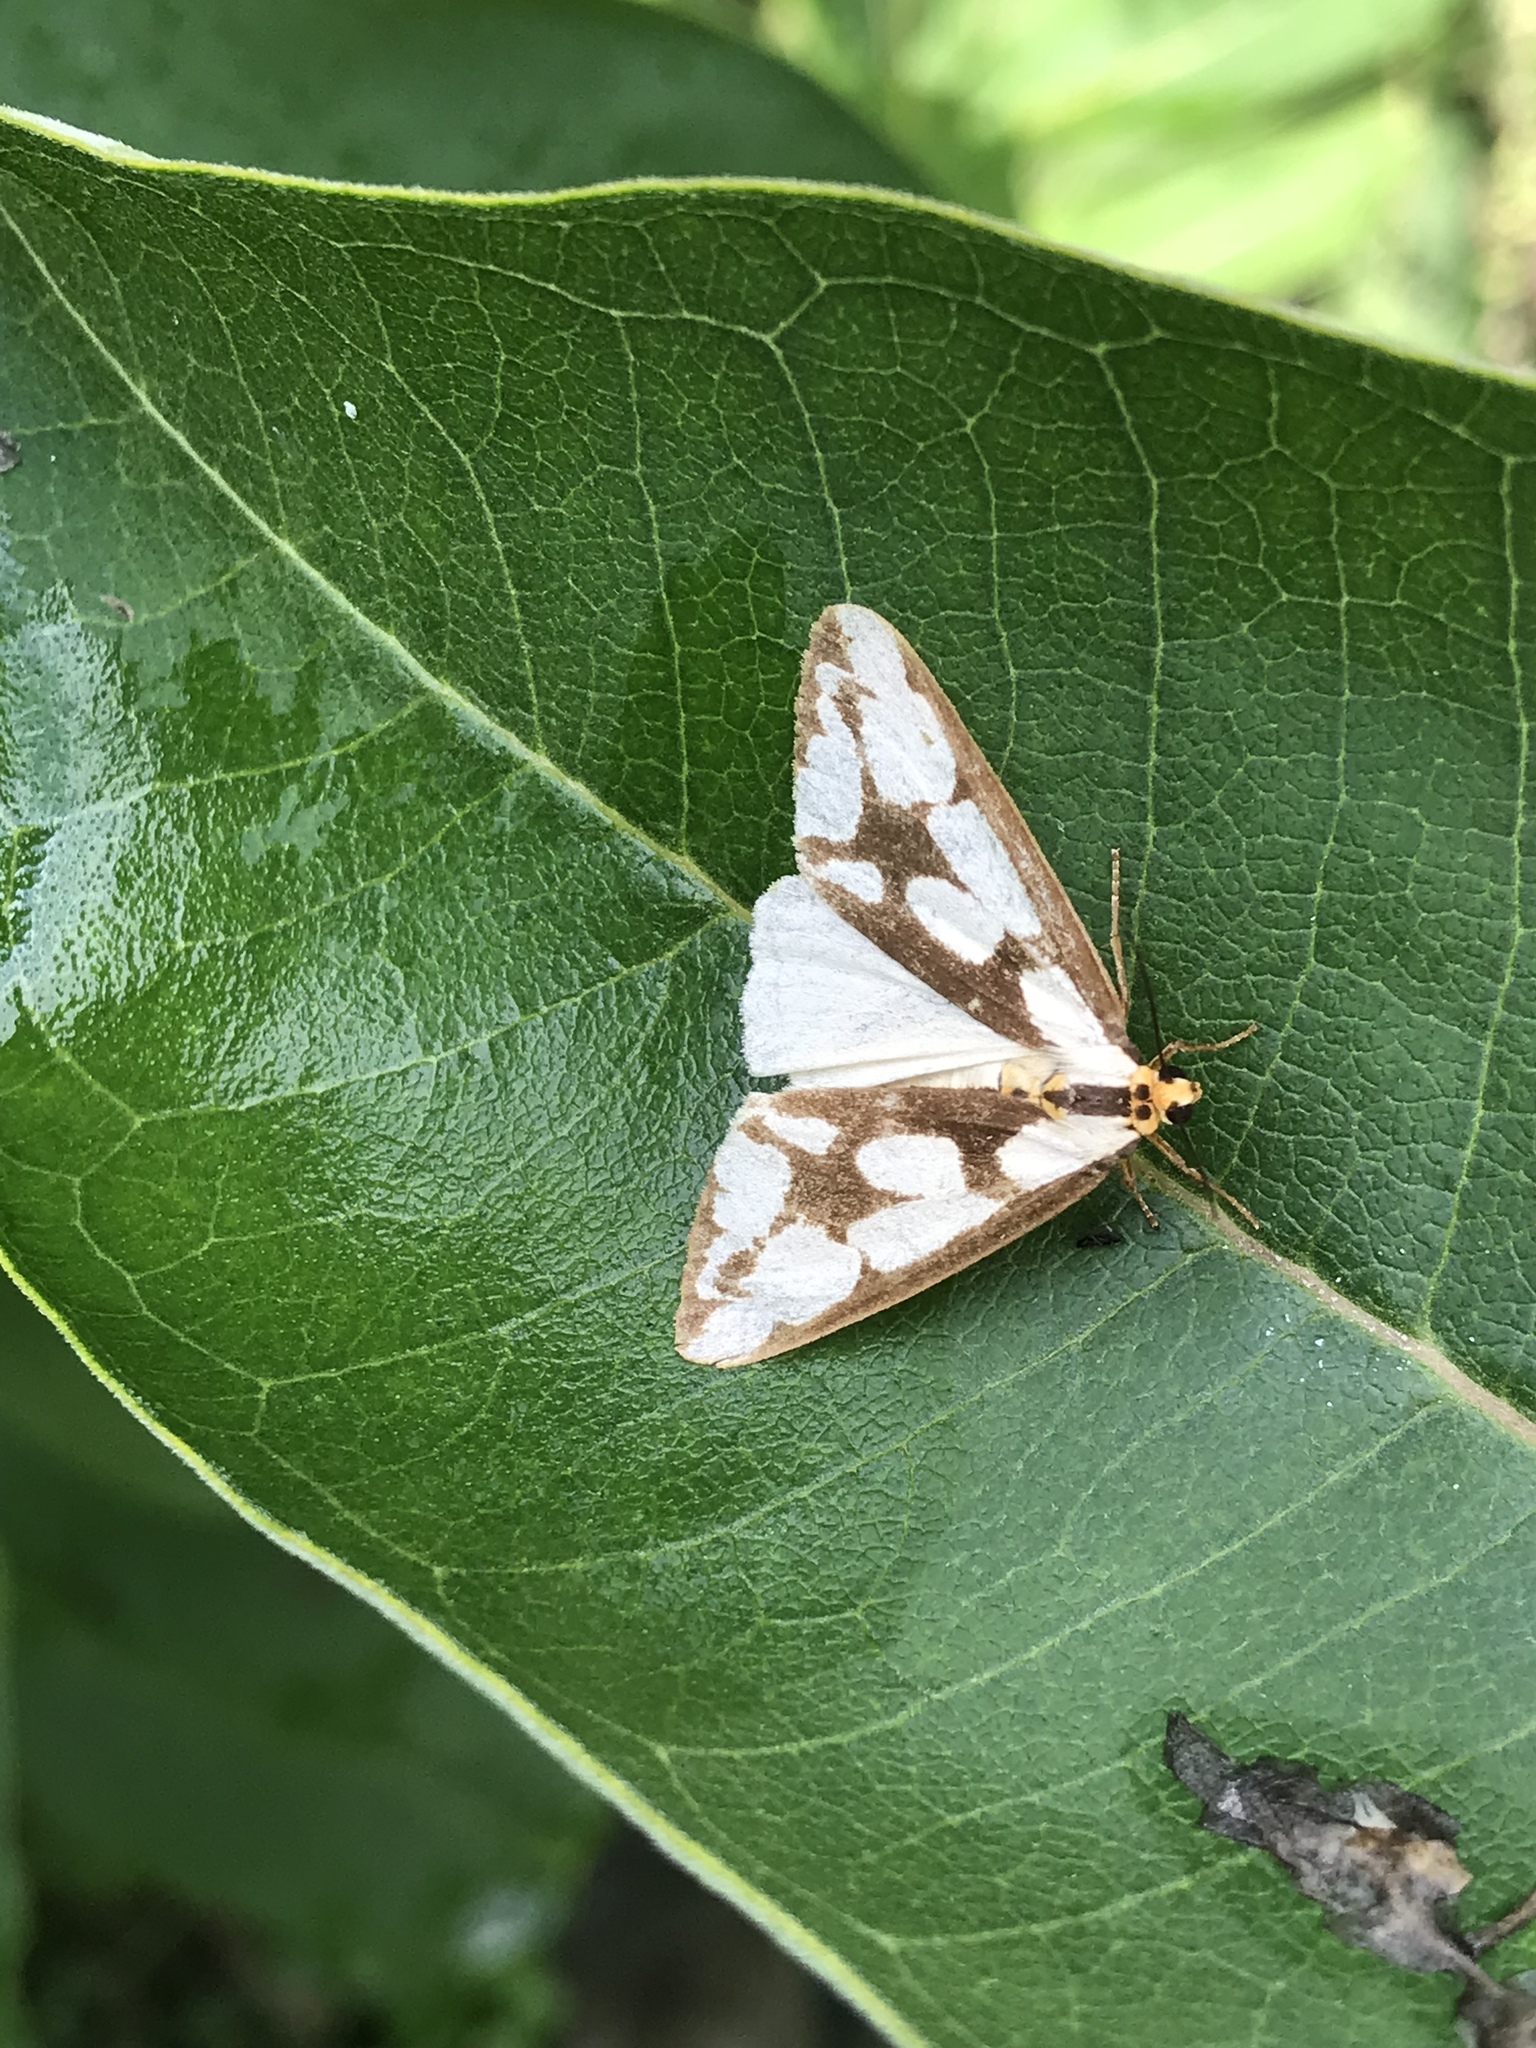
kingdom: Animalia
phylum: Arthropoda
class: Insecta
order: Lepidoptera
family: Erebidae
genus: Haploa
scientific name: Haploa confusa
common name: Confused haploa moth
